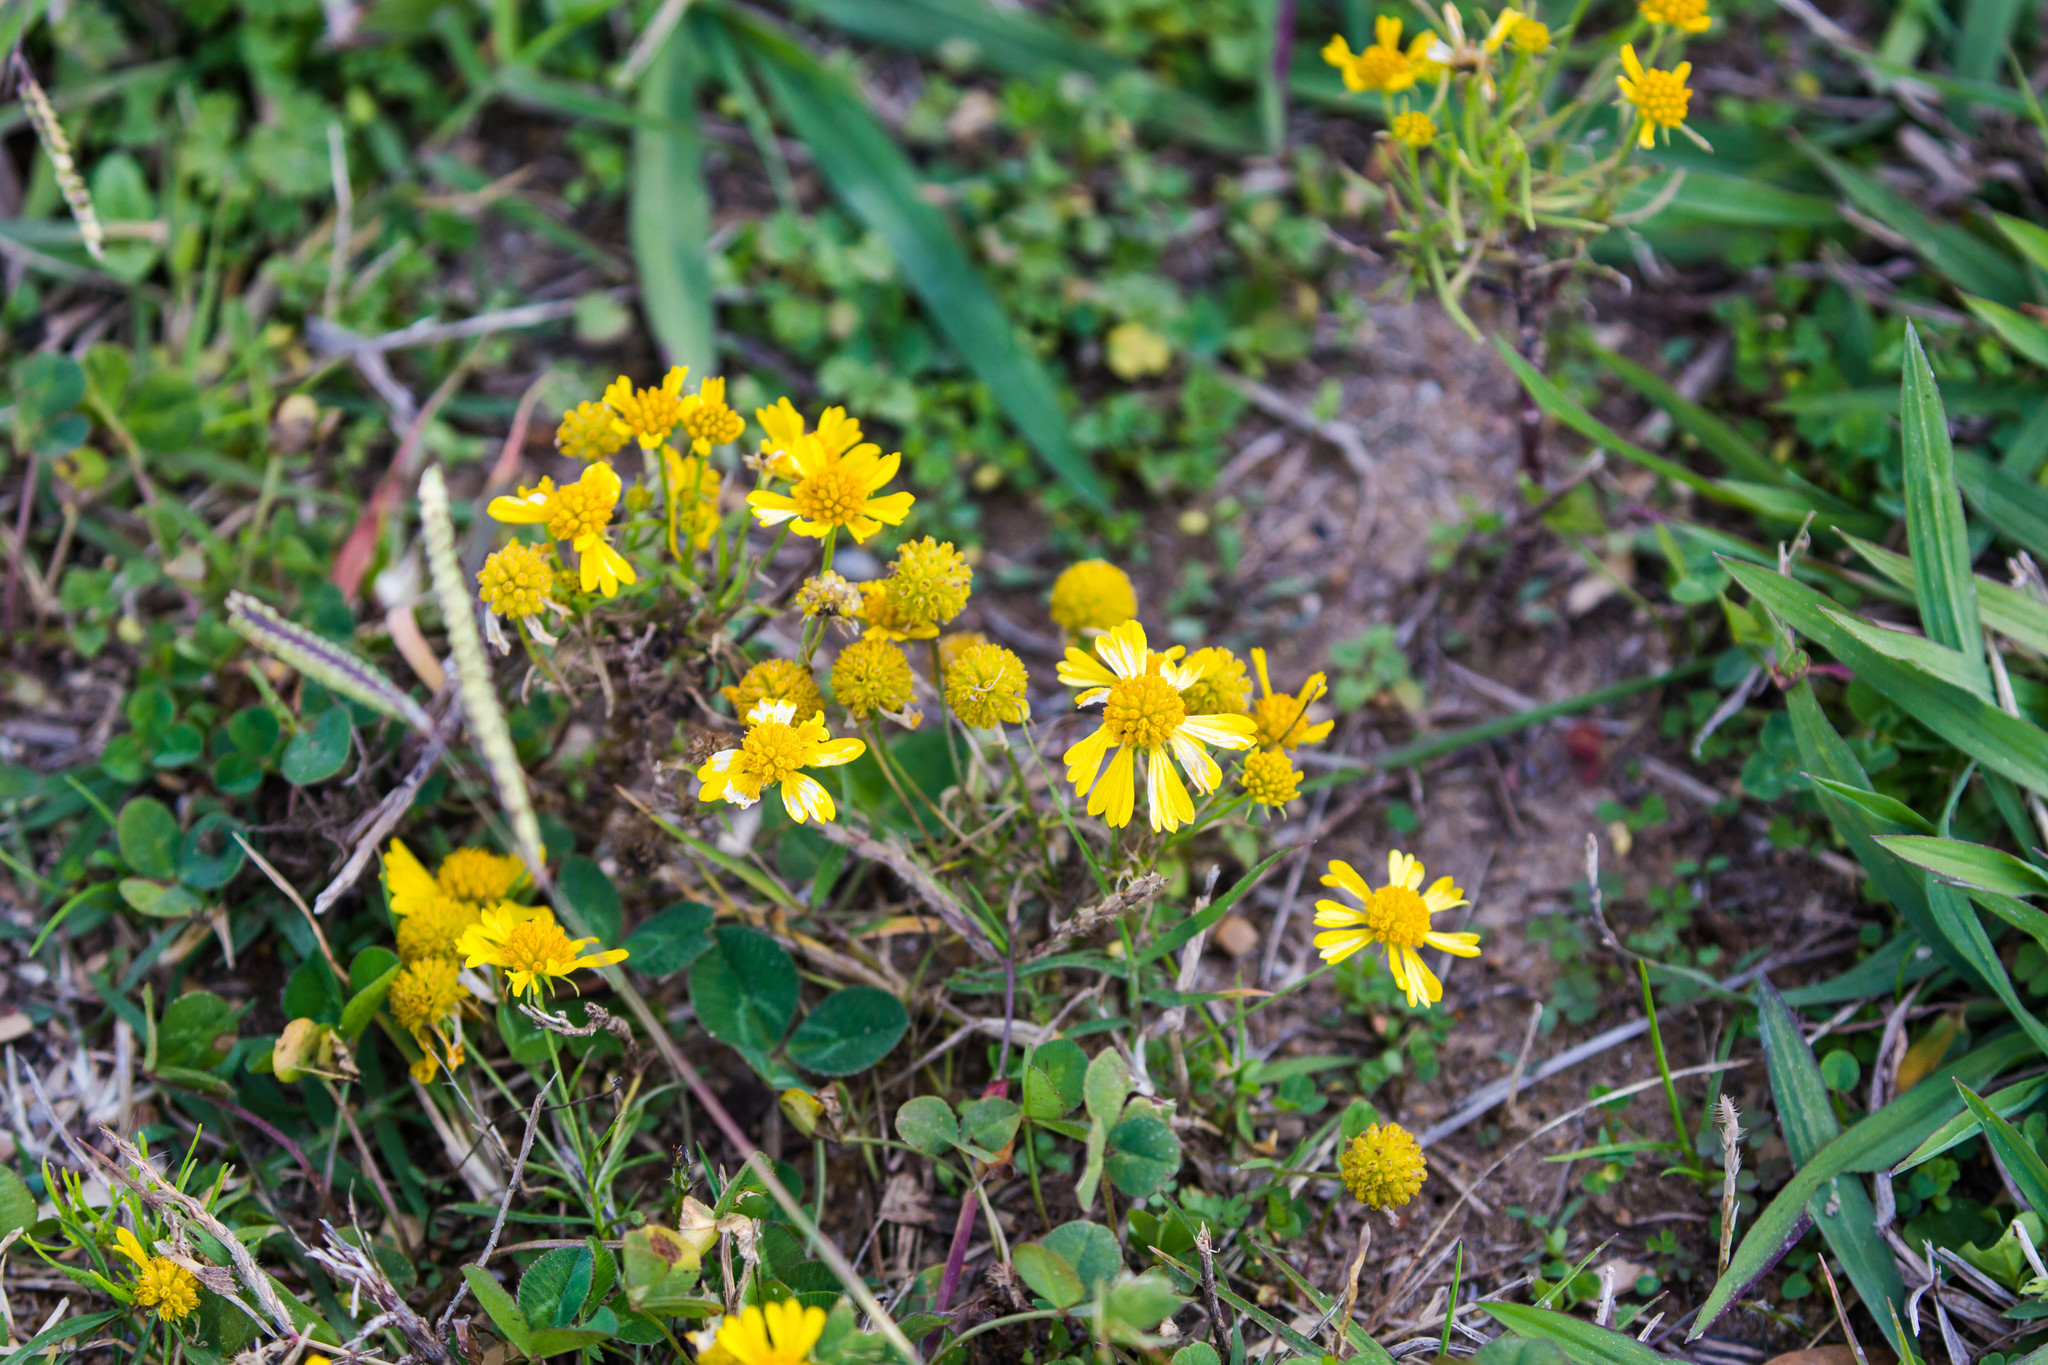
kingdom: Plantae
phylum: Tracheophyta
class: Magnoliopsida
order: Asterales
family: Asteraceae
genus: Helenium
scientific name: Helenium amarum
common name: Bitter sneezeweed
